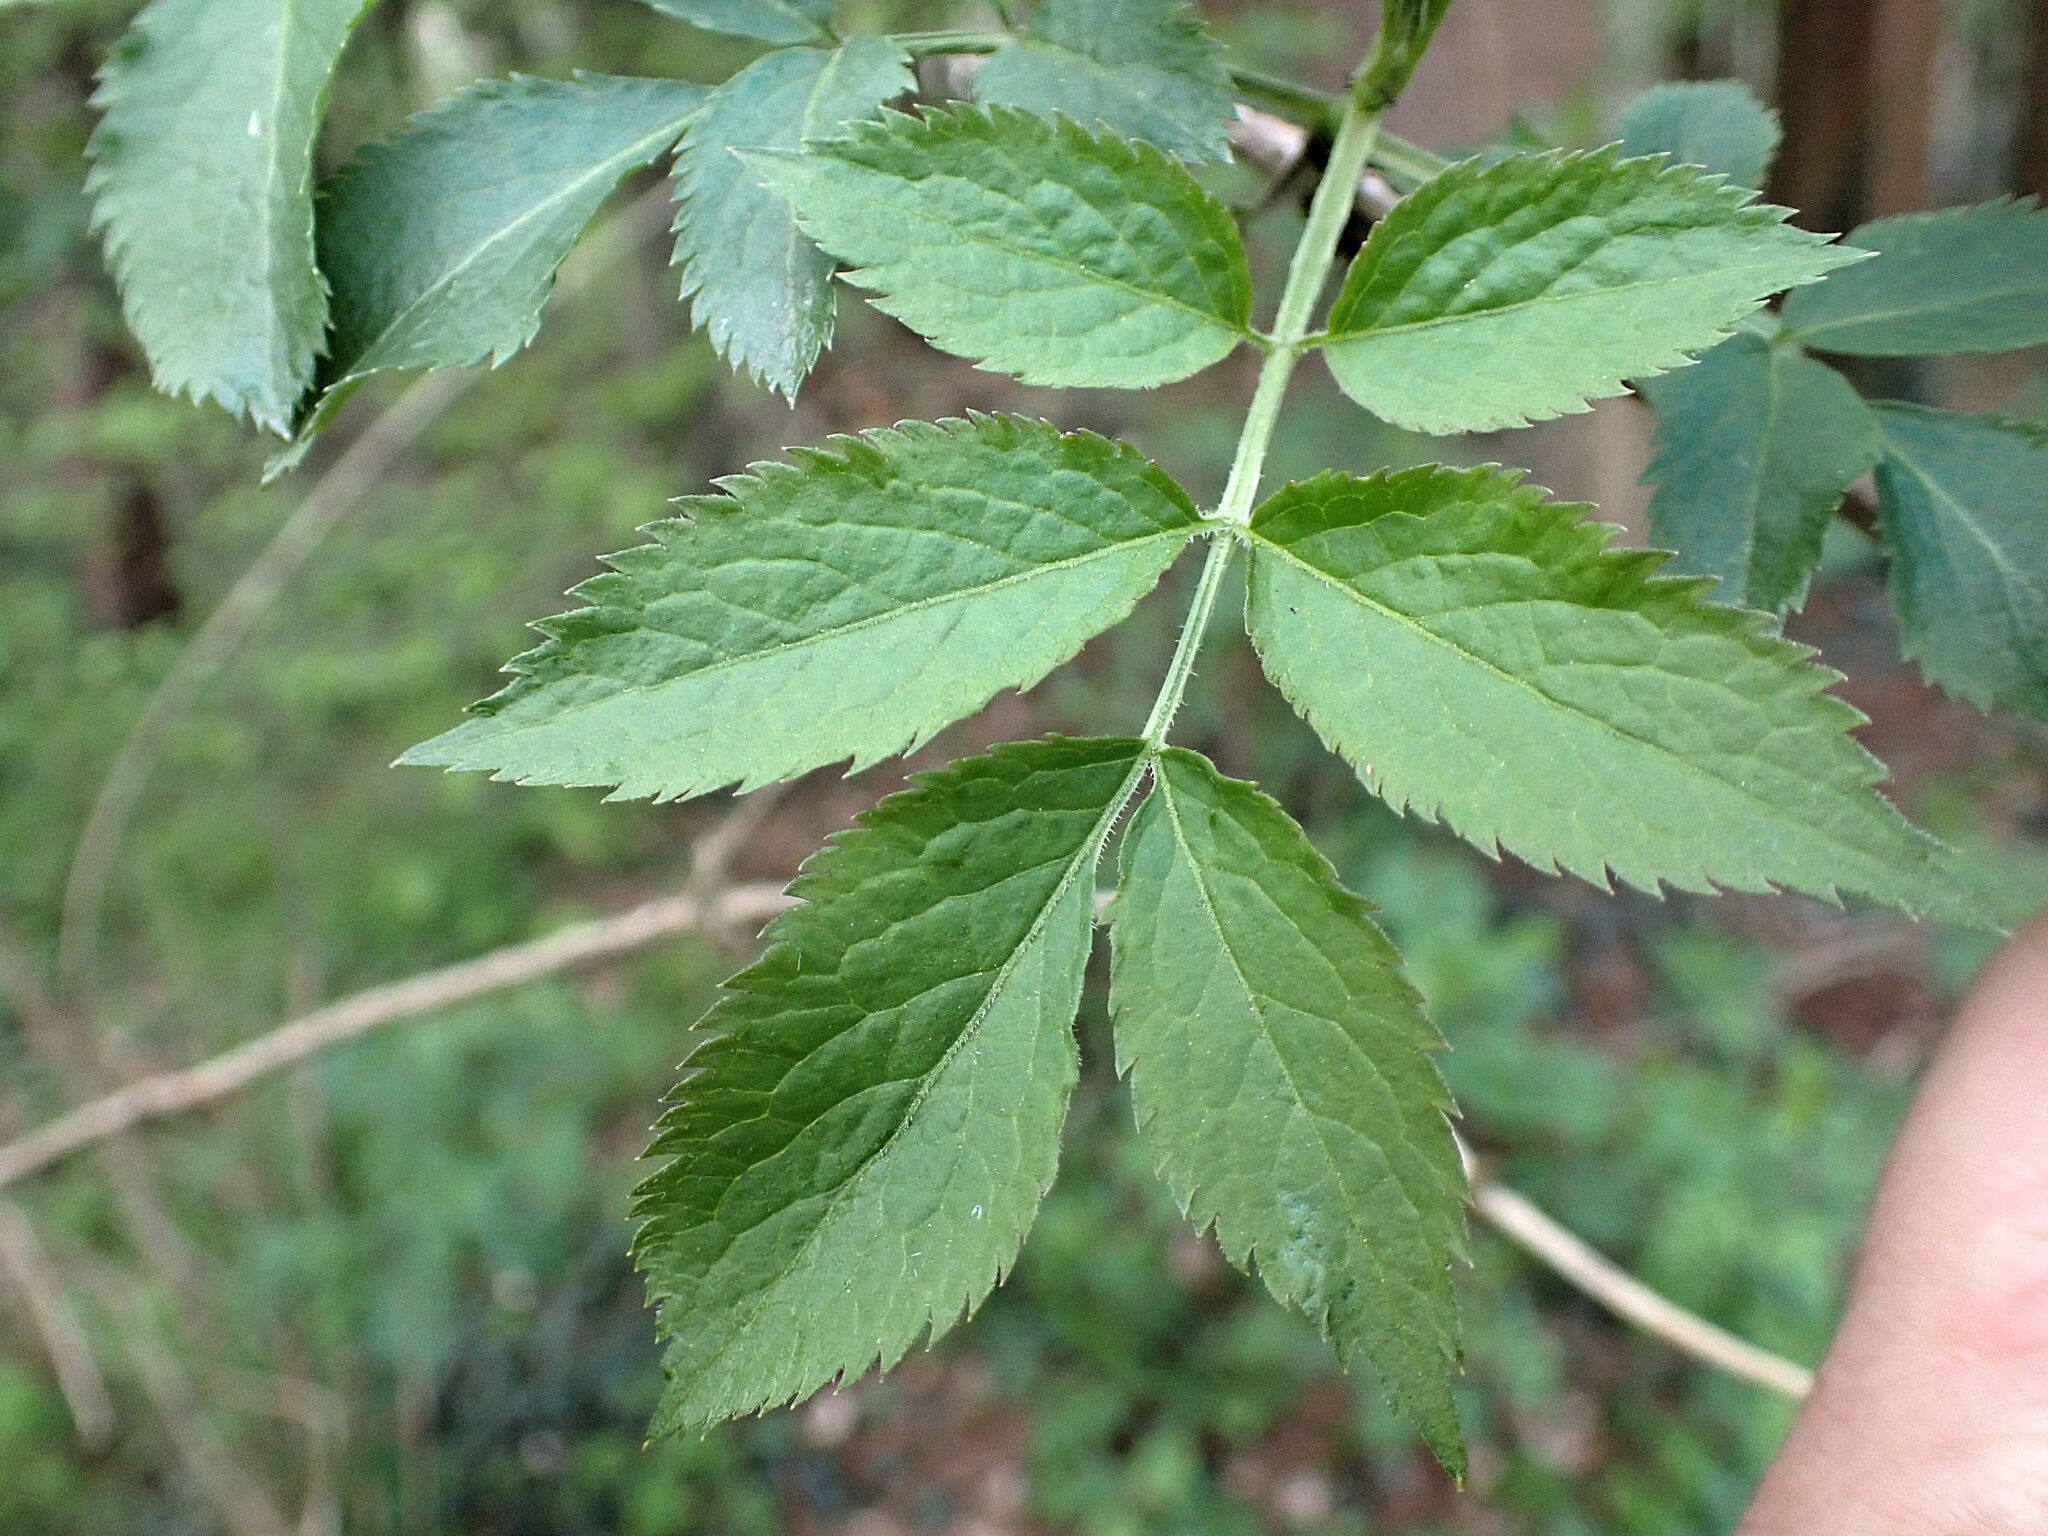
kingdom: Plantae
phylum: Tracheophyta
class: Magnoliopsida
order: Dipsacales
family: Viburnaceae
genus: Sambucus
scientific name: Sambucus nigra
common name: Elder
